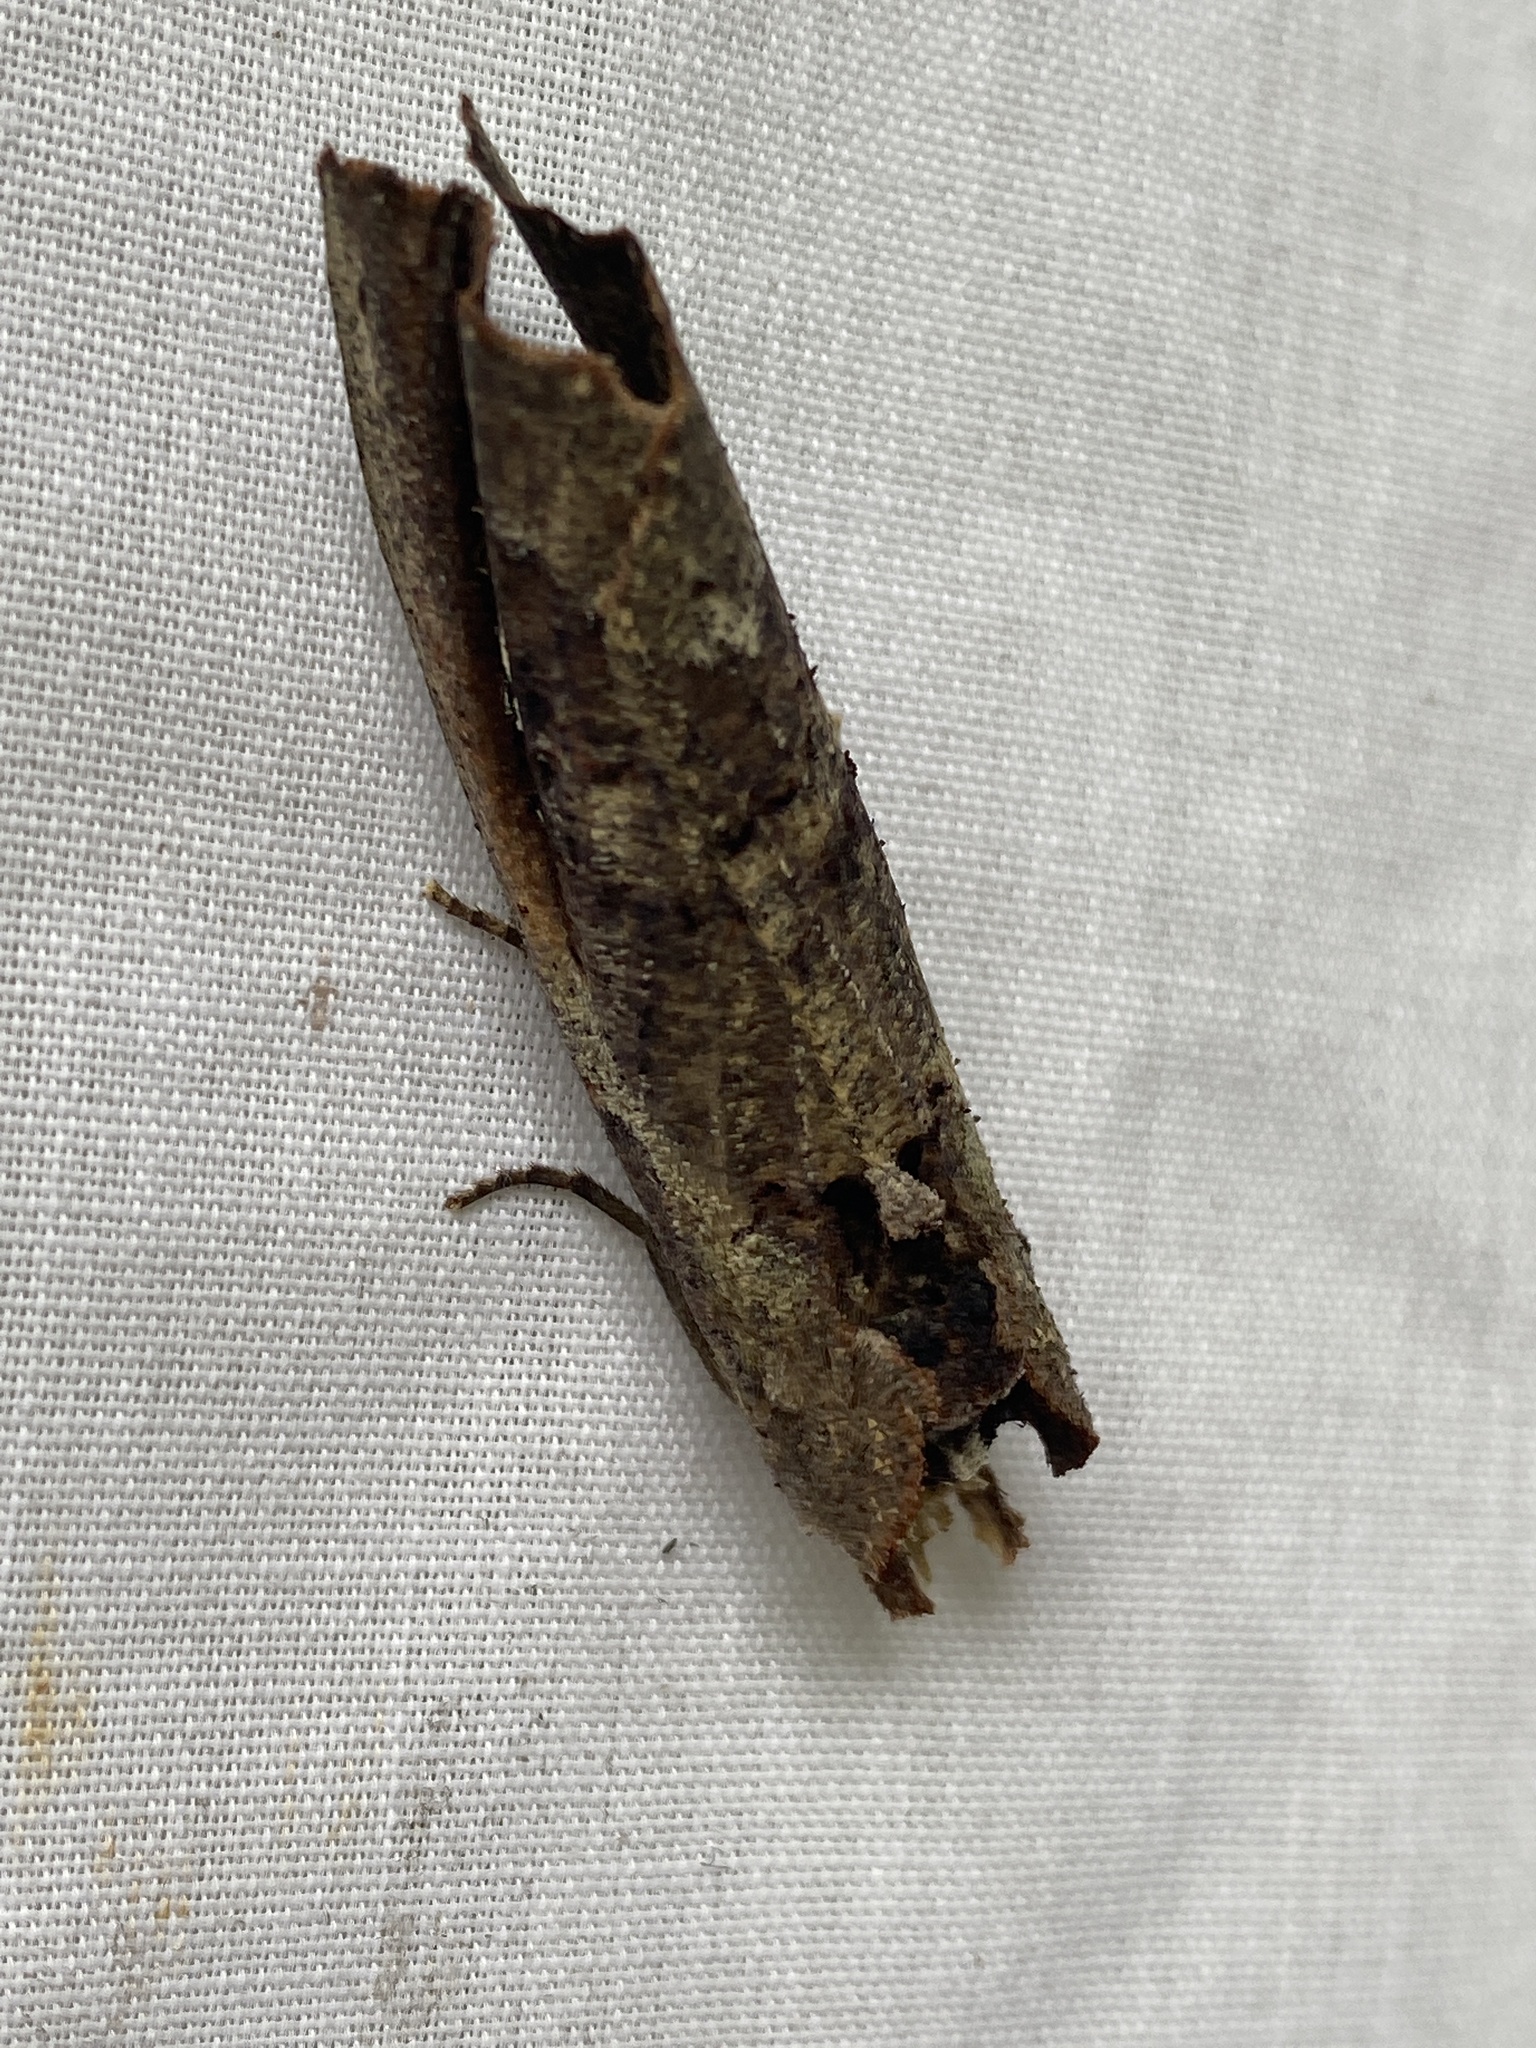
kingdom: Animalia
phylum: Arthropoda
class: Insecta
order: Lepidoptera
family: Notodontidae
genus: Elymiotis
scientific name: Elymiotis donatian
